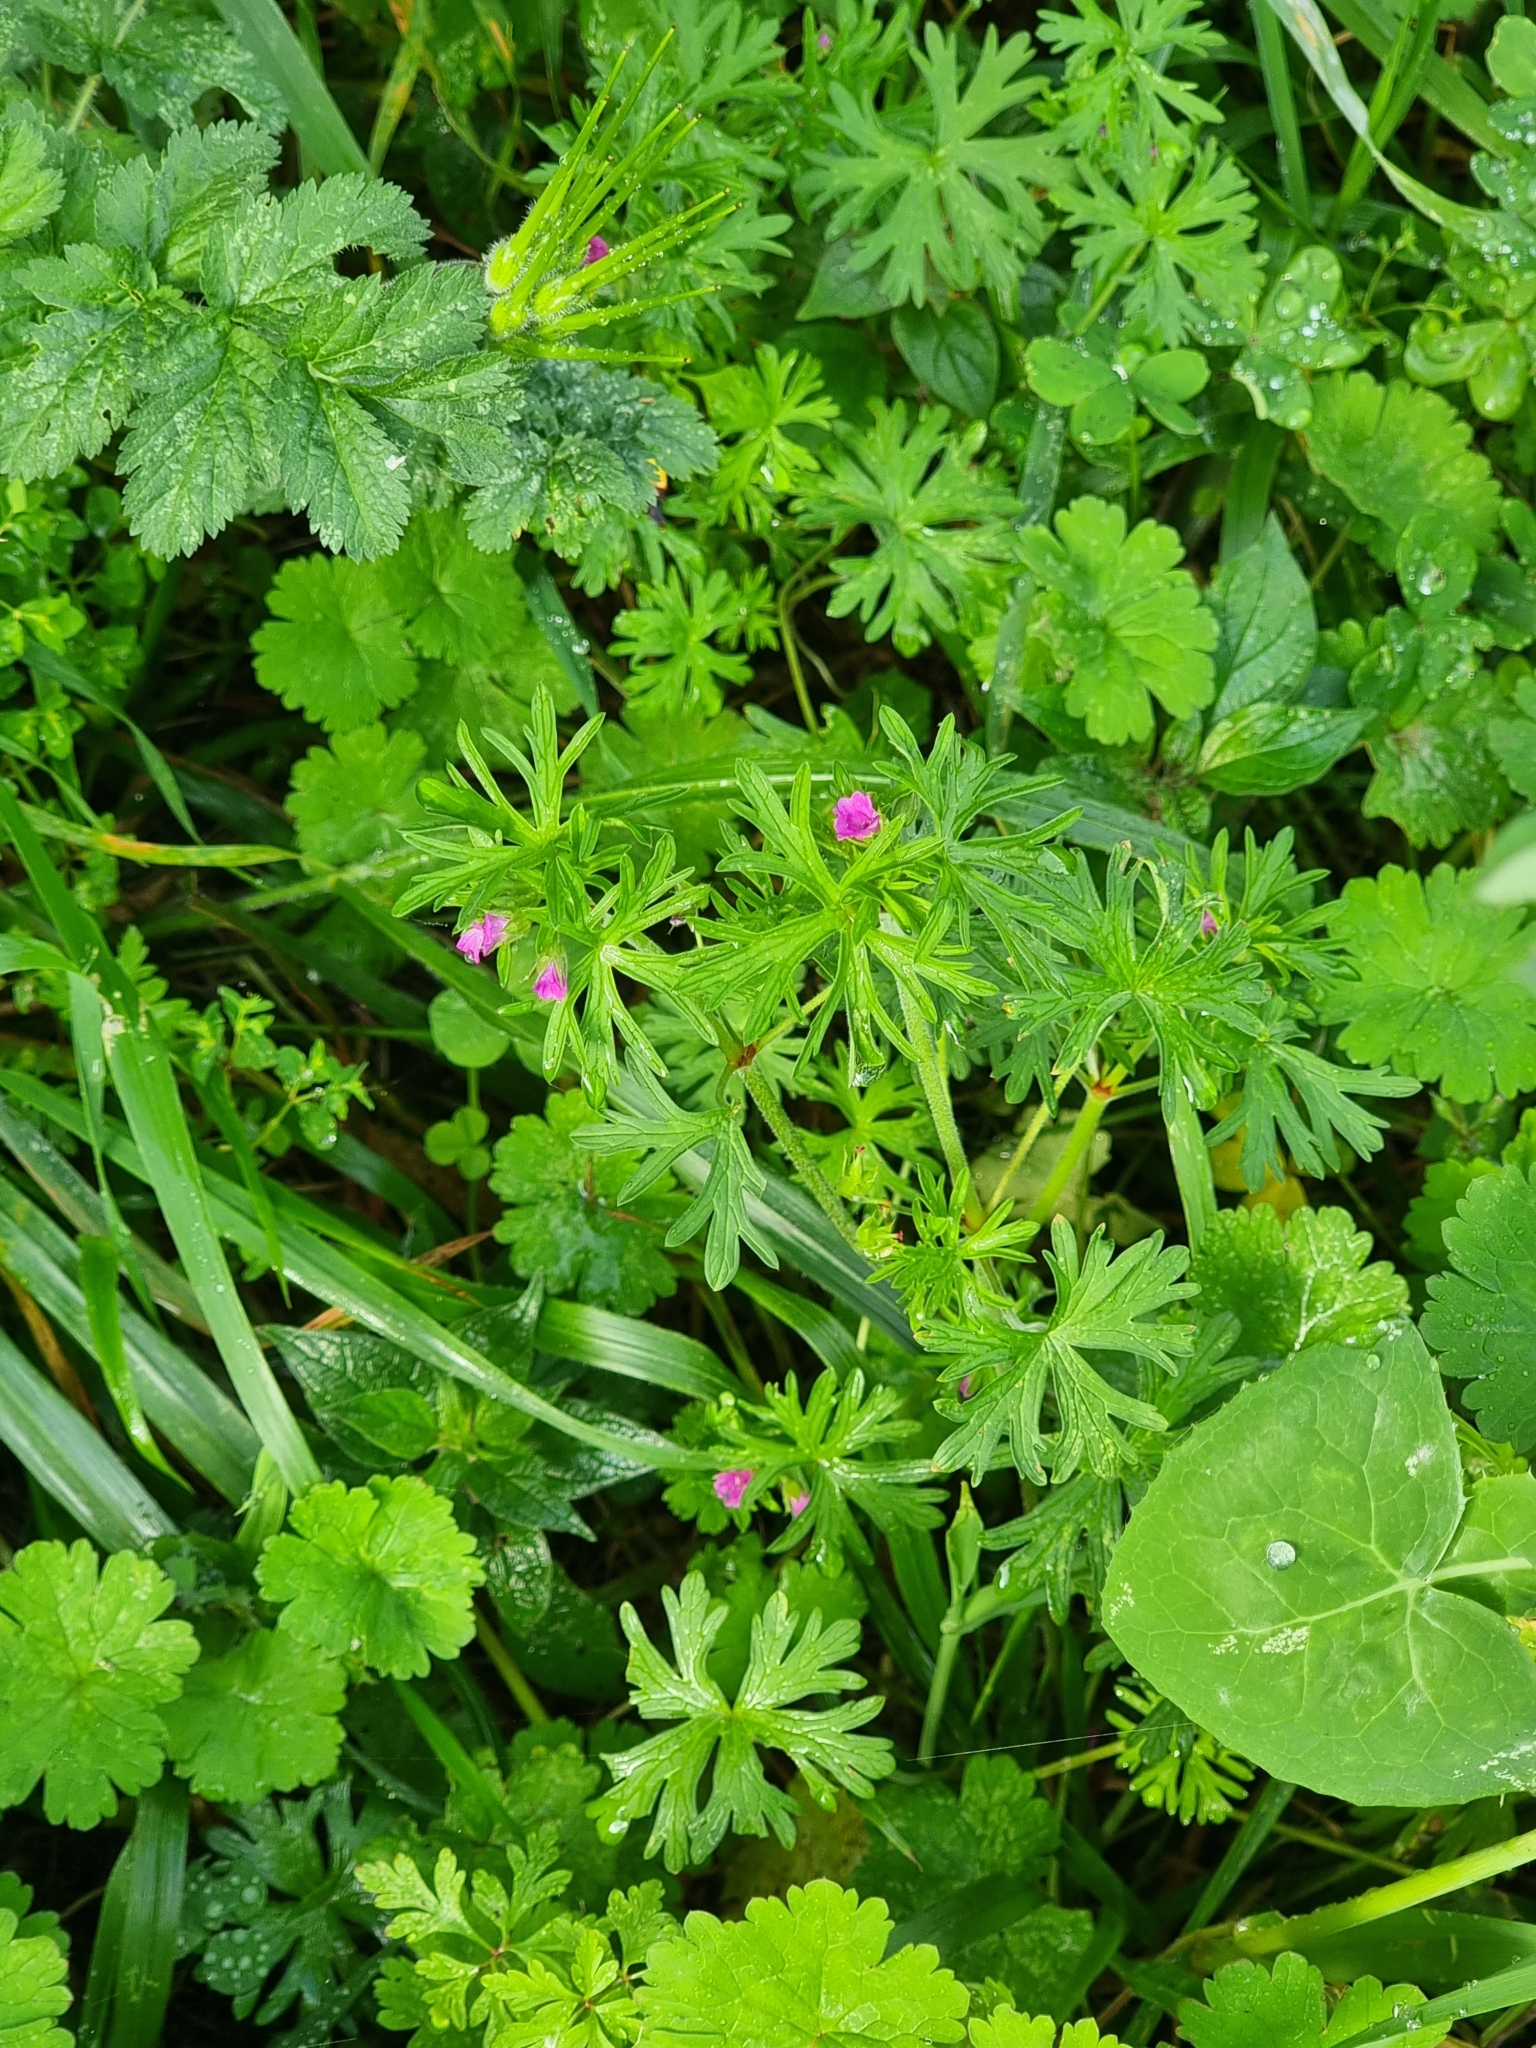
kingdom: Plantae
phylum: Tracheophyta
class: Magnoliopsida
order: Geraniales
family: Geraniaceae
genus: Geranium
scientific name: Geranium dissectum
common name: Cut-leaved crane's-bill
